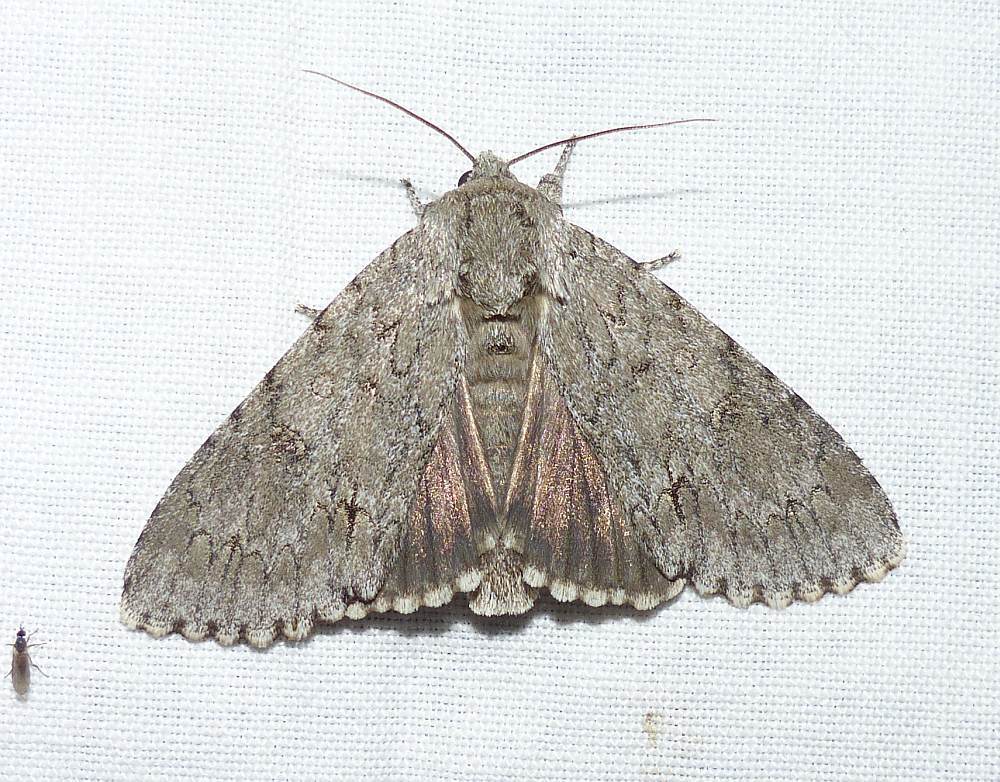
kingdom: Animalia
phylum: Arthropoda
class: Insecta
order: Lepidoptera
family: Noctuidae
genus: Acronicta
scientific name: Acronicta americana
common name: American dagger
